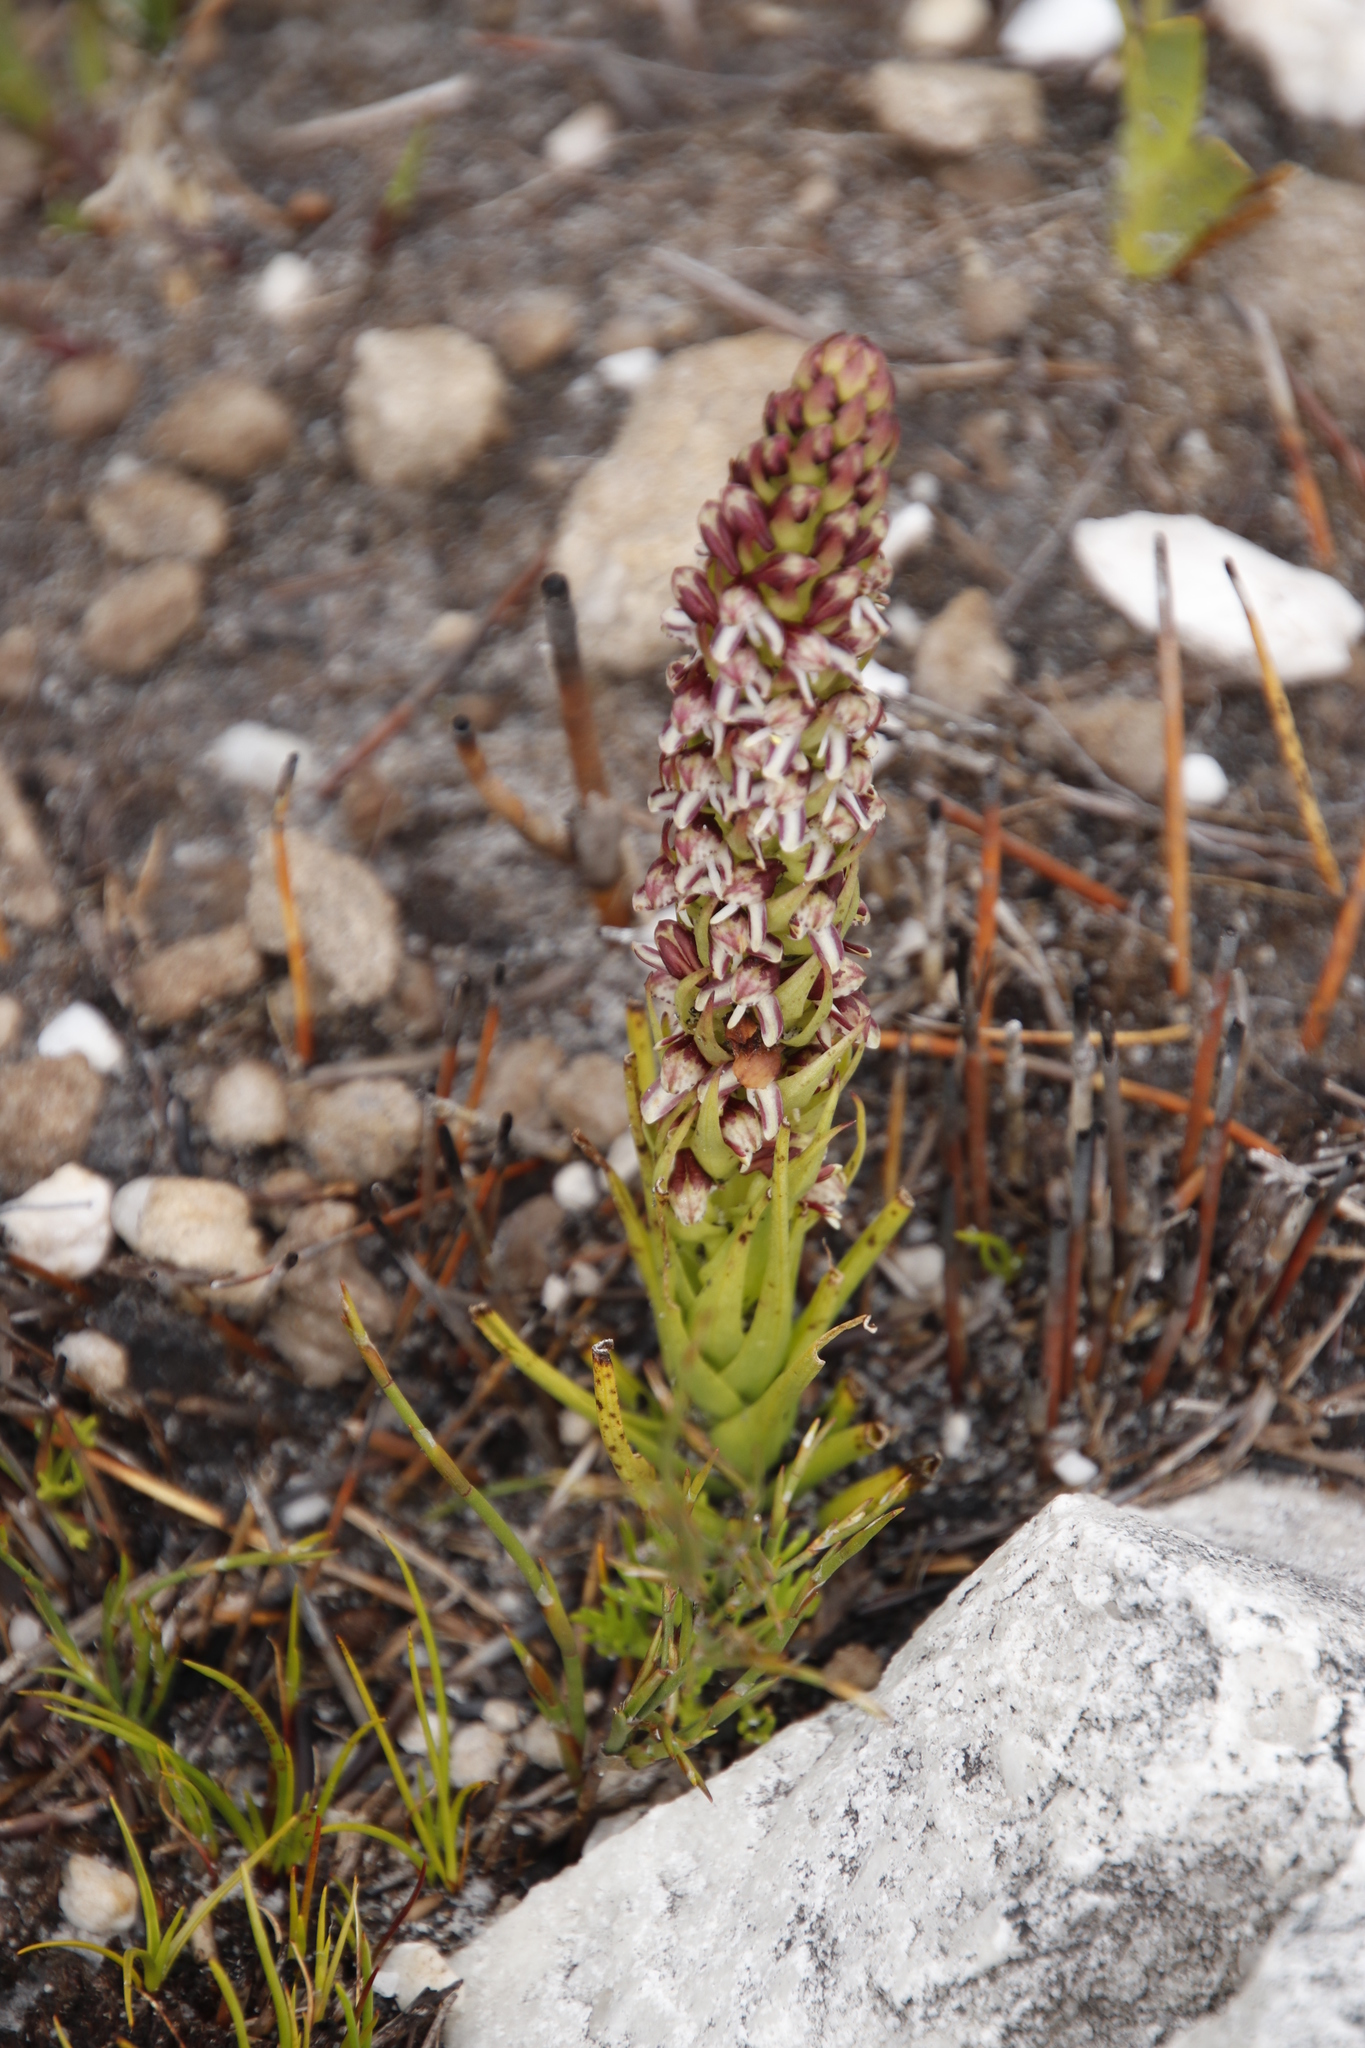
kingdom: Plantae
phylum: Tracheophyta
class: Liliopsida
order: Asparagales
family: Orchidaceae
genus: Disa
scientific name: Disa obtusa
